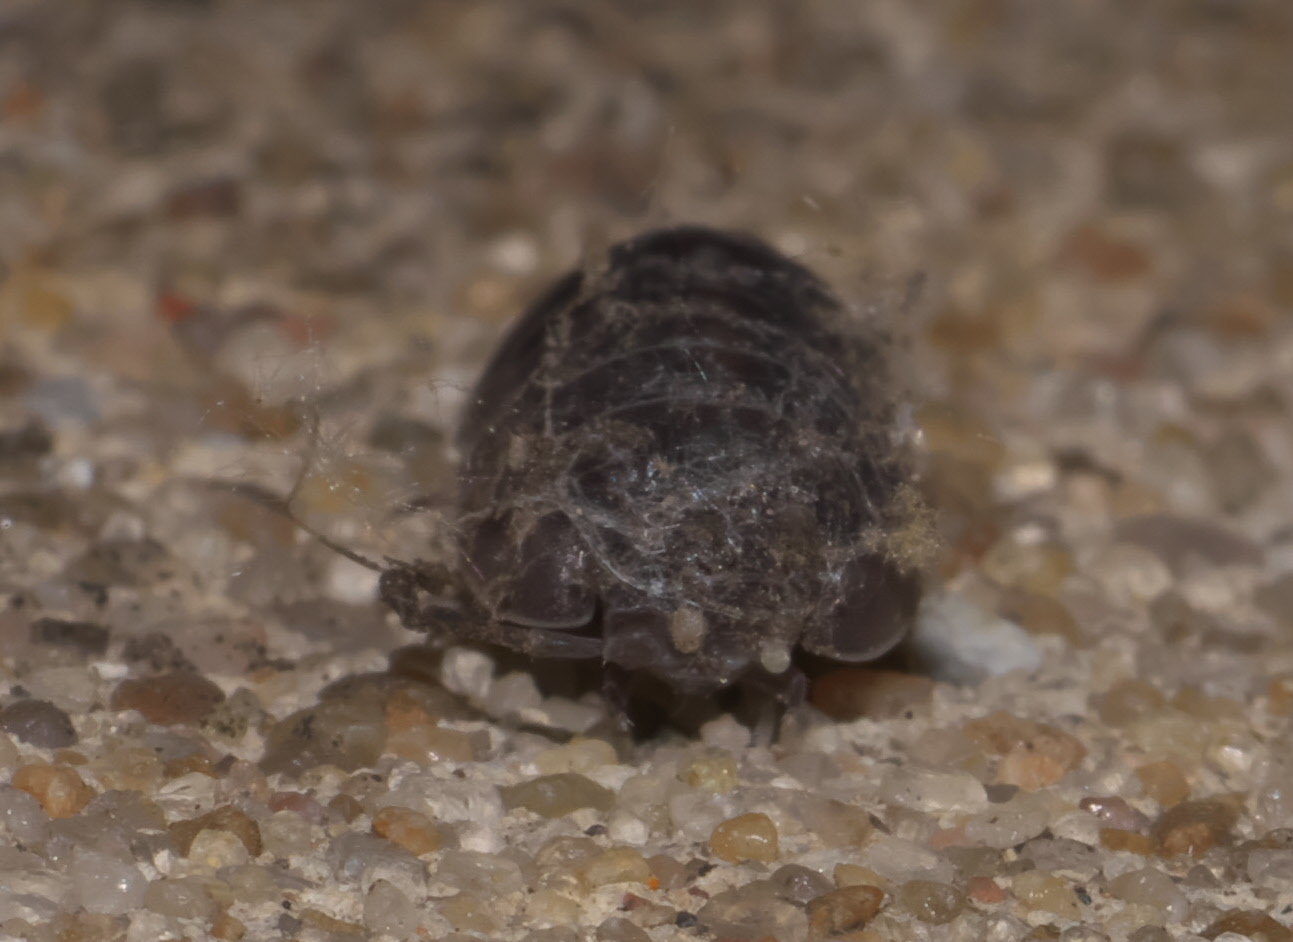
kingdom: Animalia
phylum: Arthropoda
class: Malacostraca
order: Isopoda
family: Armadillidiidae
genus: Armadillidium
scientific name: Armadillidium nasatum
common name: Isopod
